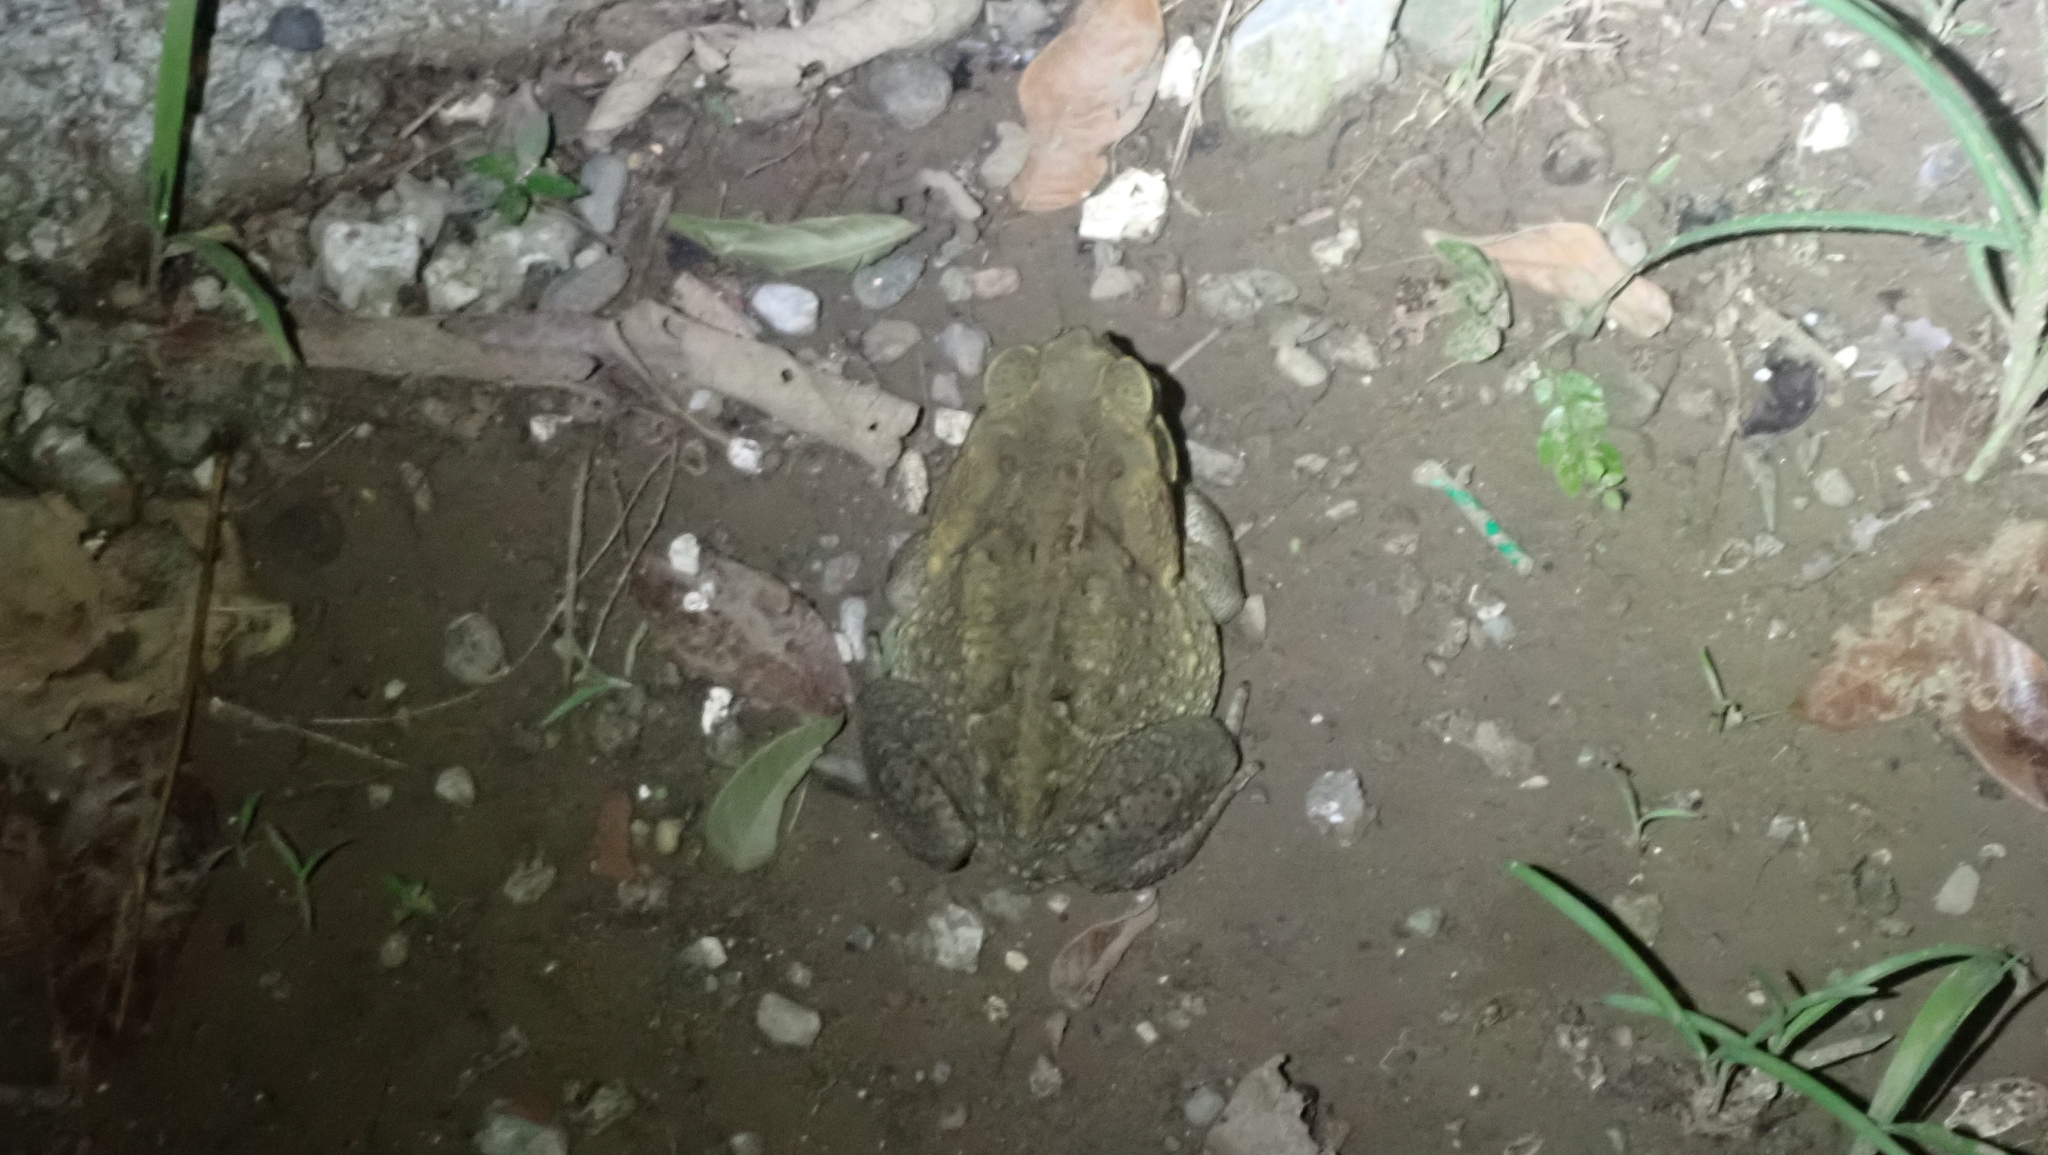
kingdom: Animalia
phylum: Chordata
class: Amphibia
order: Anura
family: Bufonidae
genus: Rhinella
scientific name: Rhinella horribilis
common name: Mesoamerican cane toad
